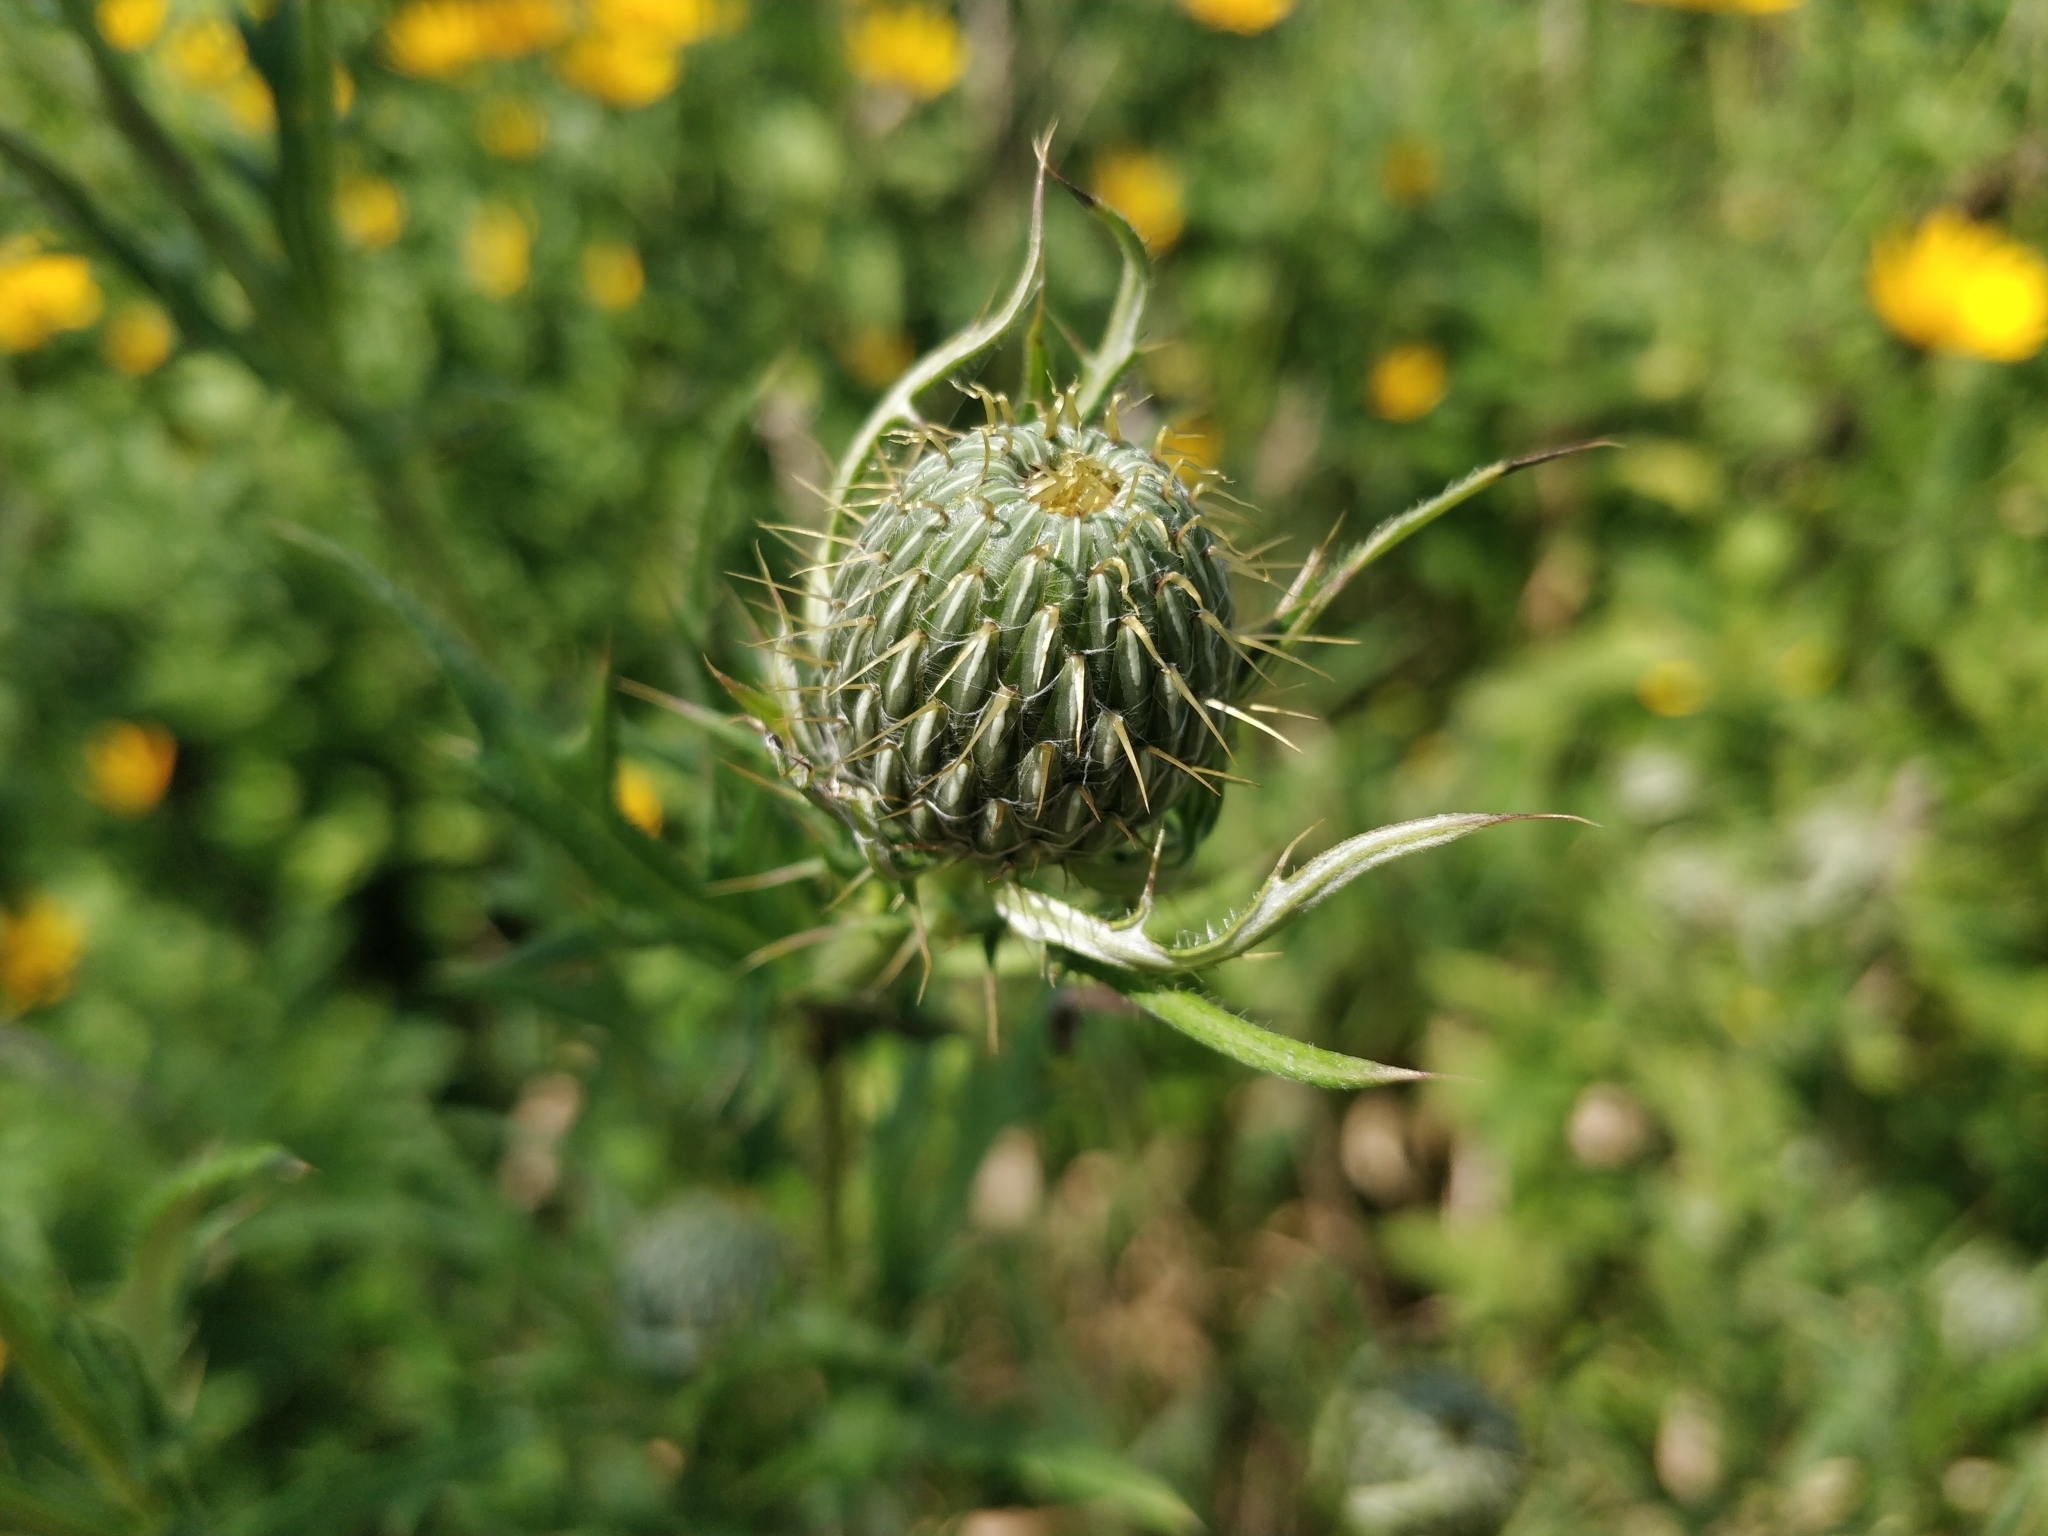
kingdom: Plantae
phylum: Tracheophyta
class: Magnoliopsida
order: Asterales
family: Asteraceae
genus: Cirsium
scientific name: Cirsium discolor
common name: Field thistle
